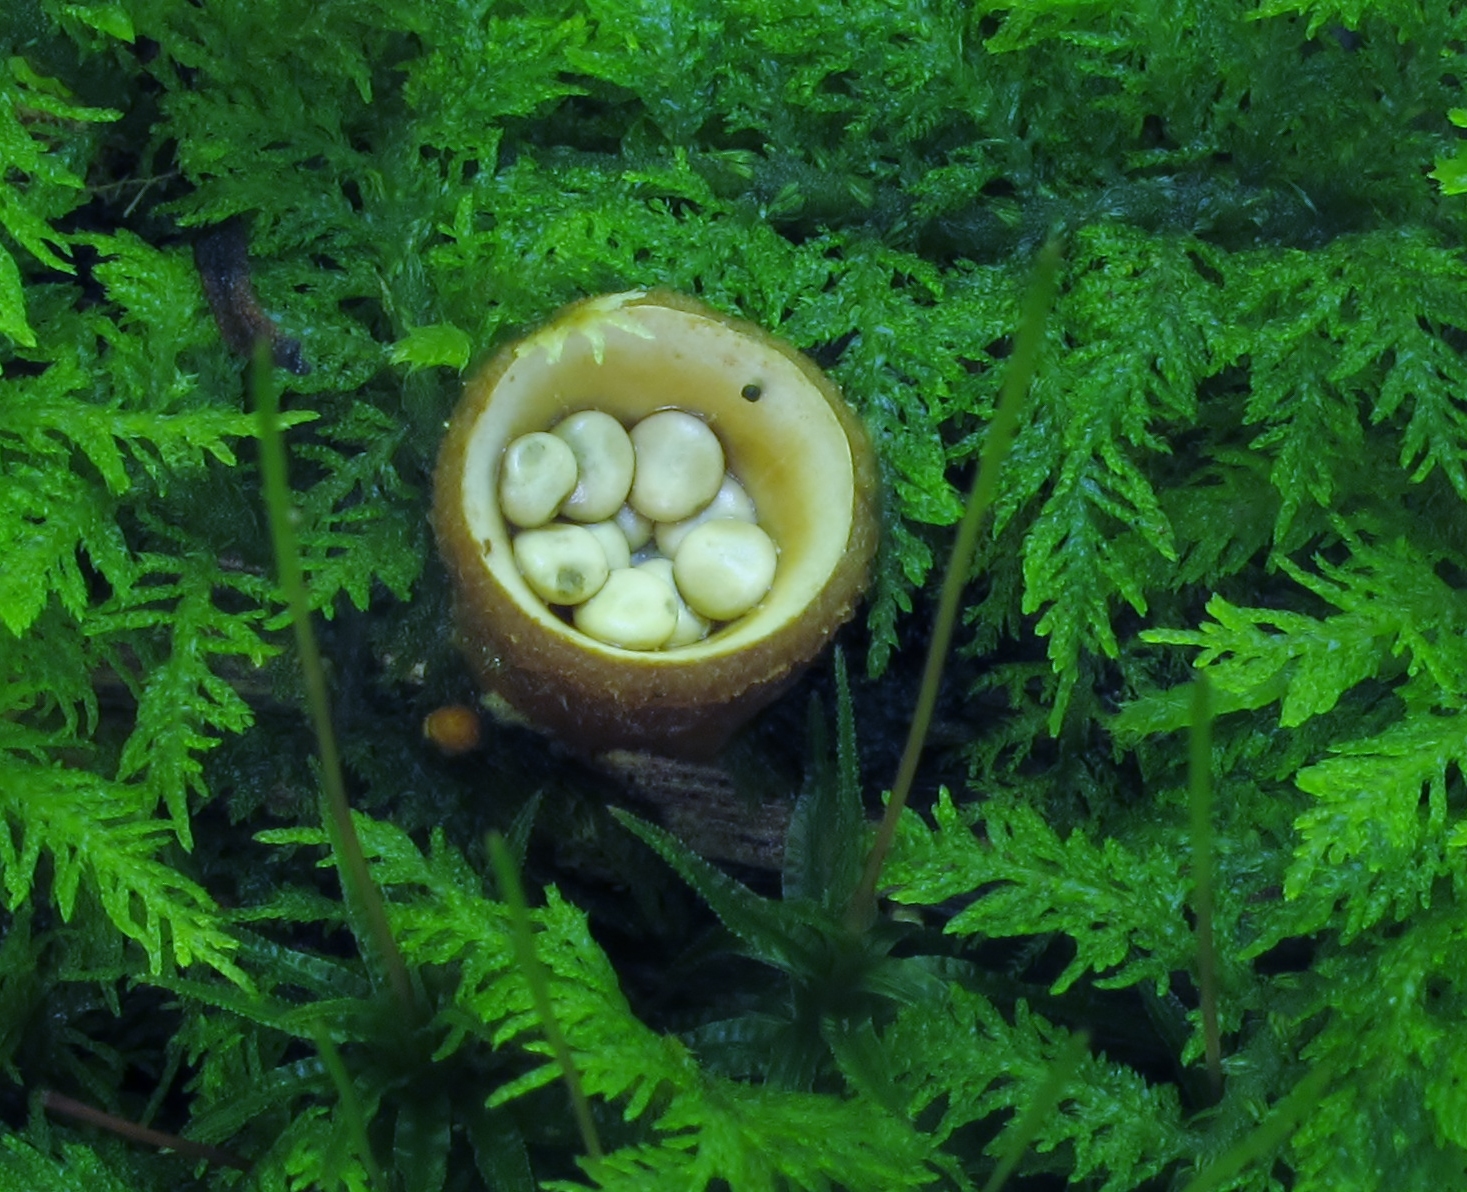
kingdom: Fungi
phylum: Basidiomycota
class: Agaricomycetes
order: Agaricales
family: Nidulariaceae
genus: Crucibulum
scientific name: Crucibulum laeve
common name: Common bird's nest
